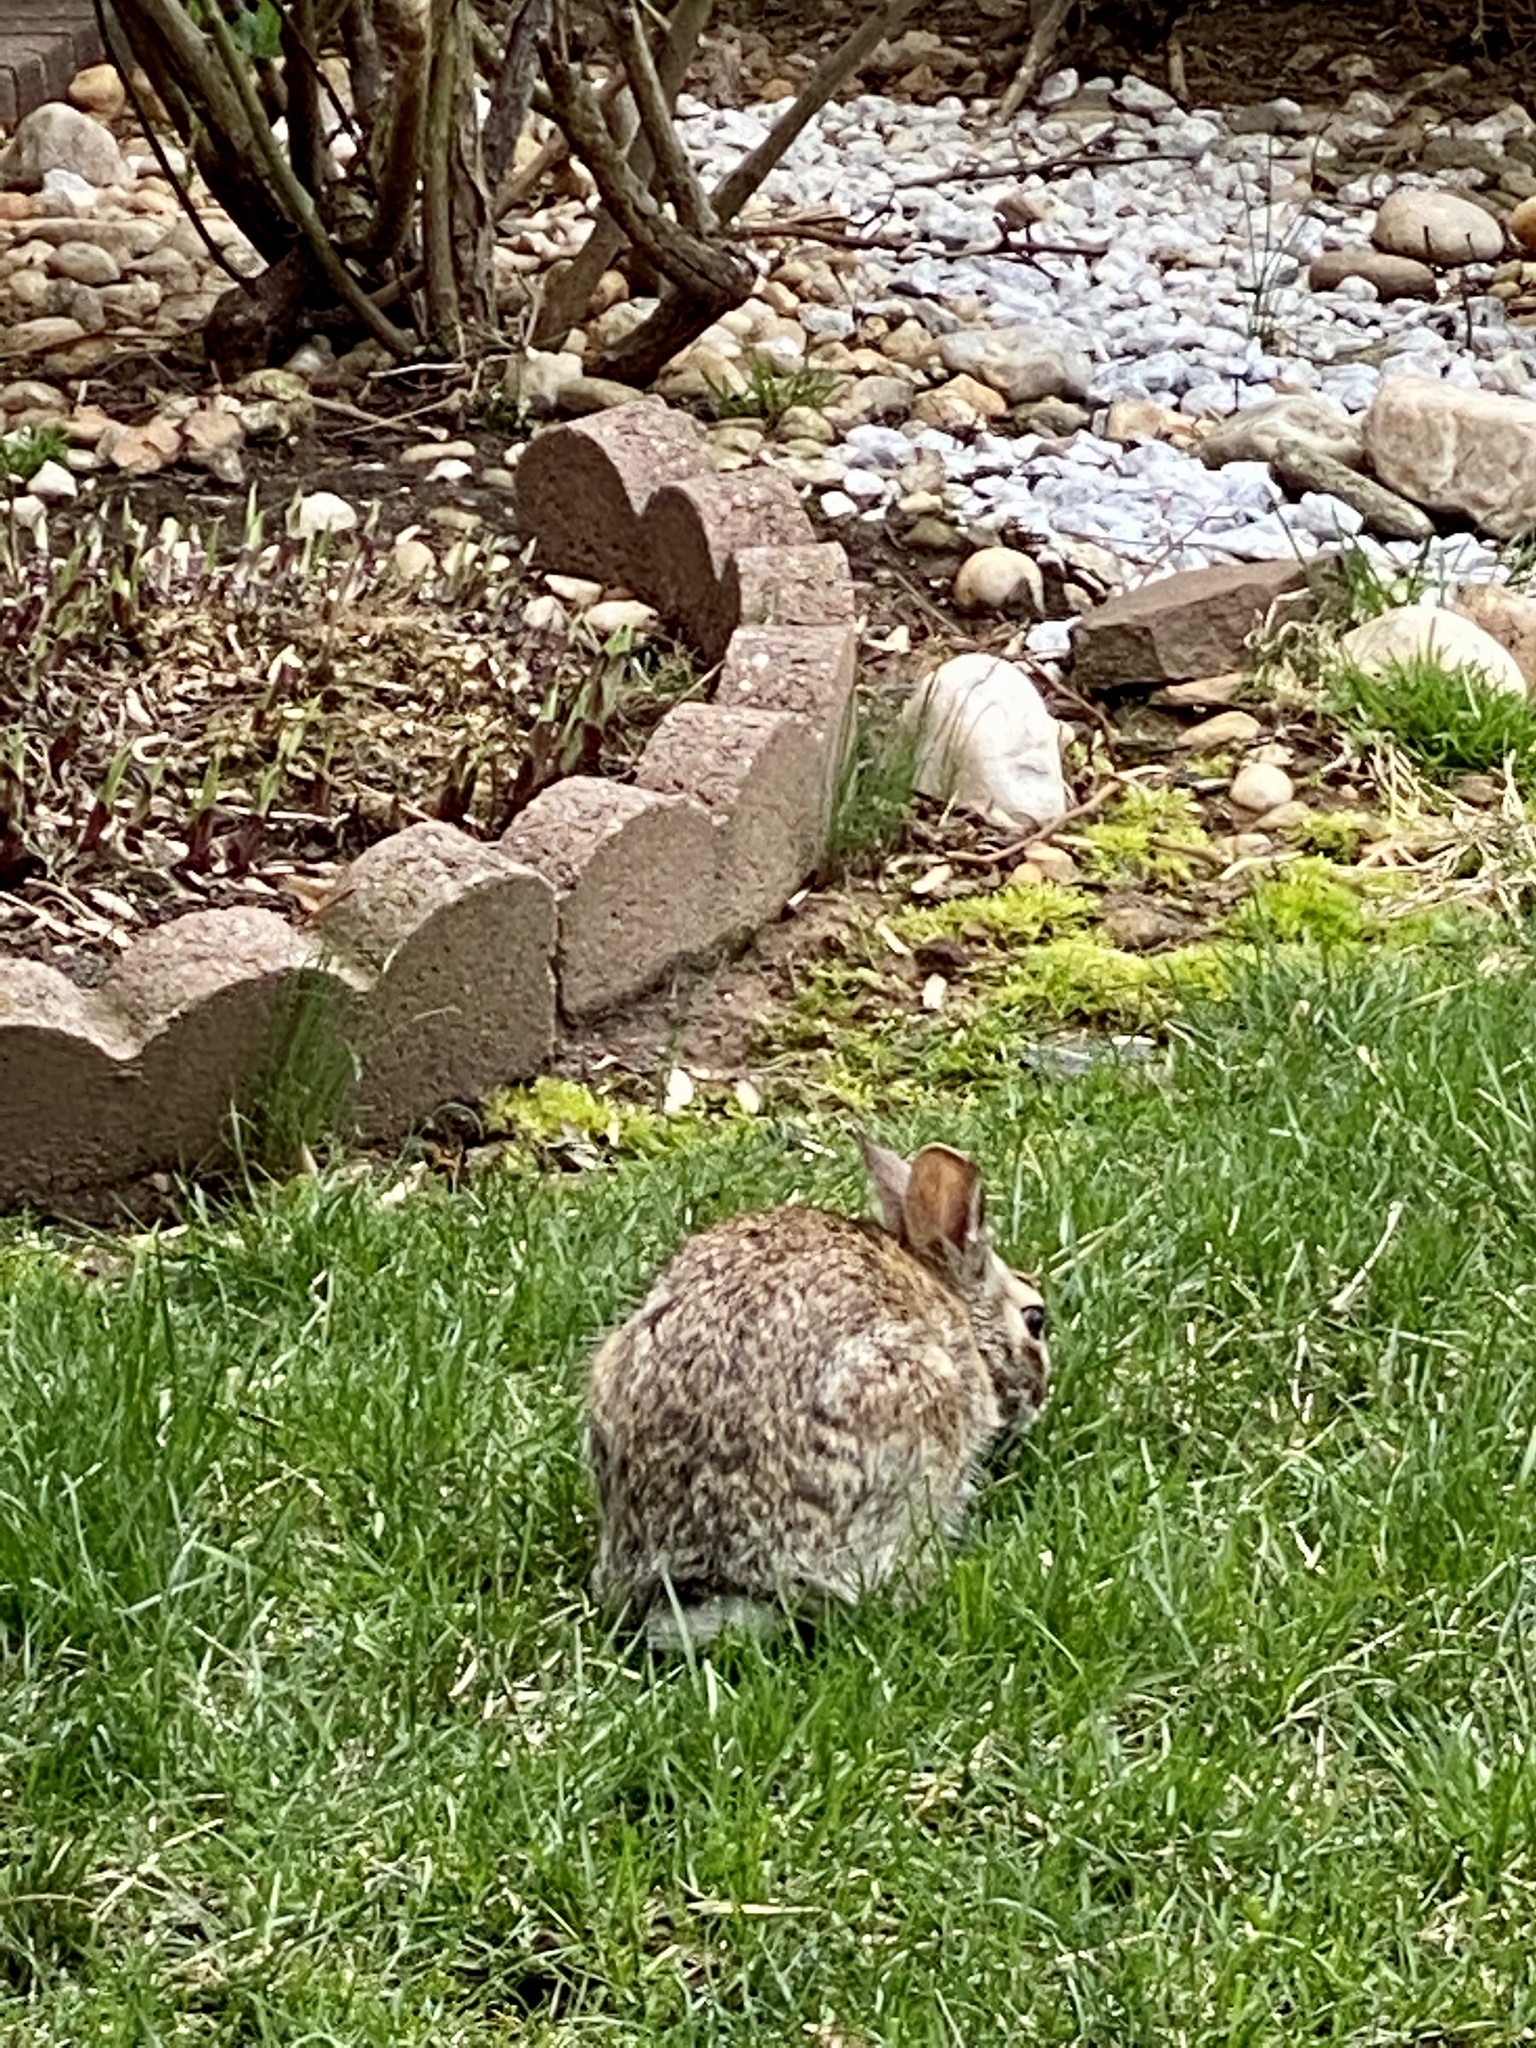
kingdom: Animalia
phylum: Chordata
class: Mammalia
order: Lagomorpha
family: Leporidae
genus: Sylvilagus
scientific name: Sylvilagus floridanus
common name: Eastern cottontail
